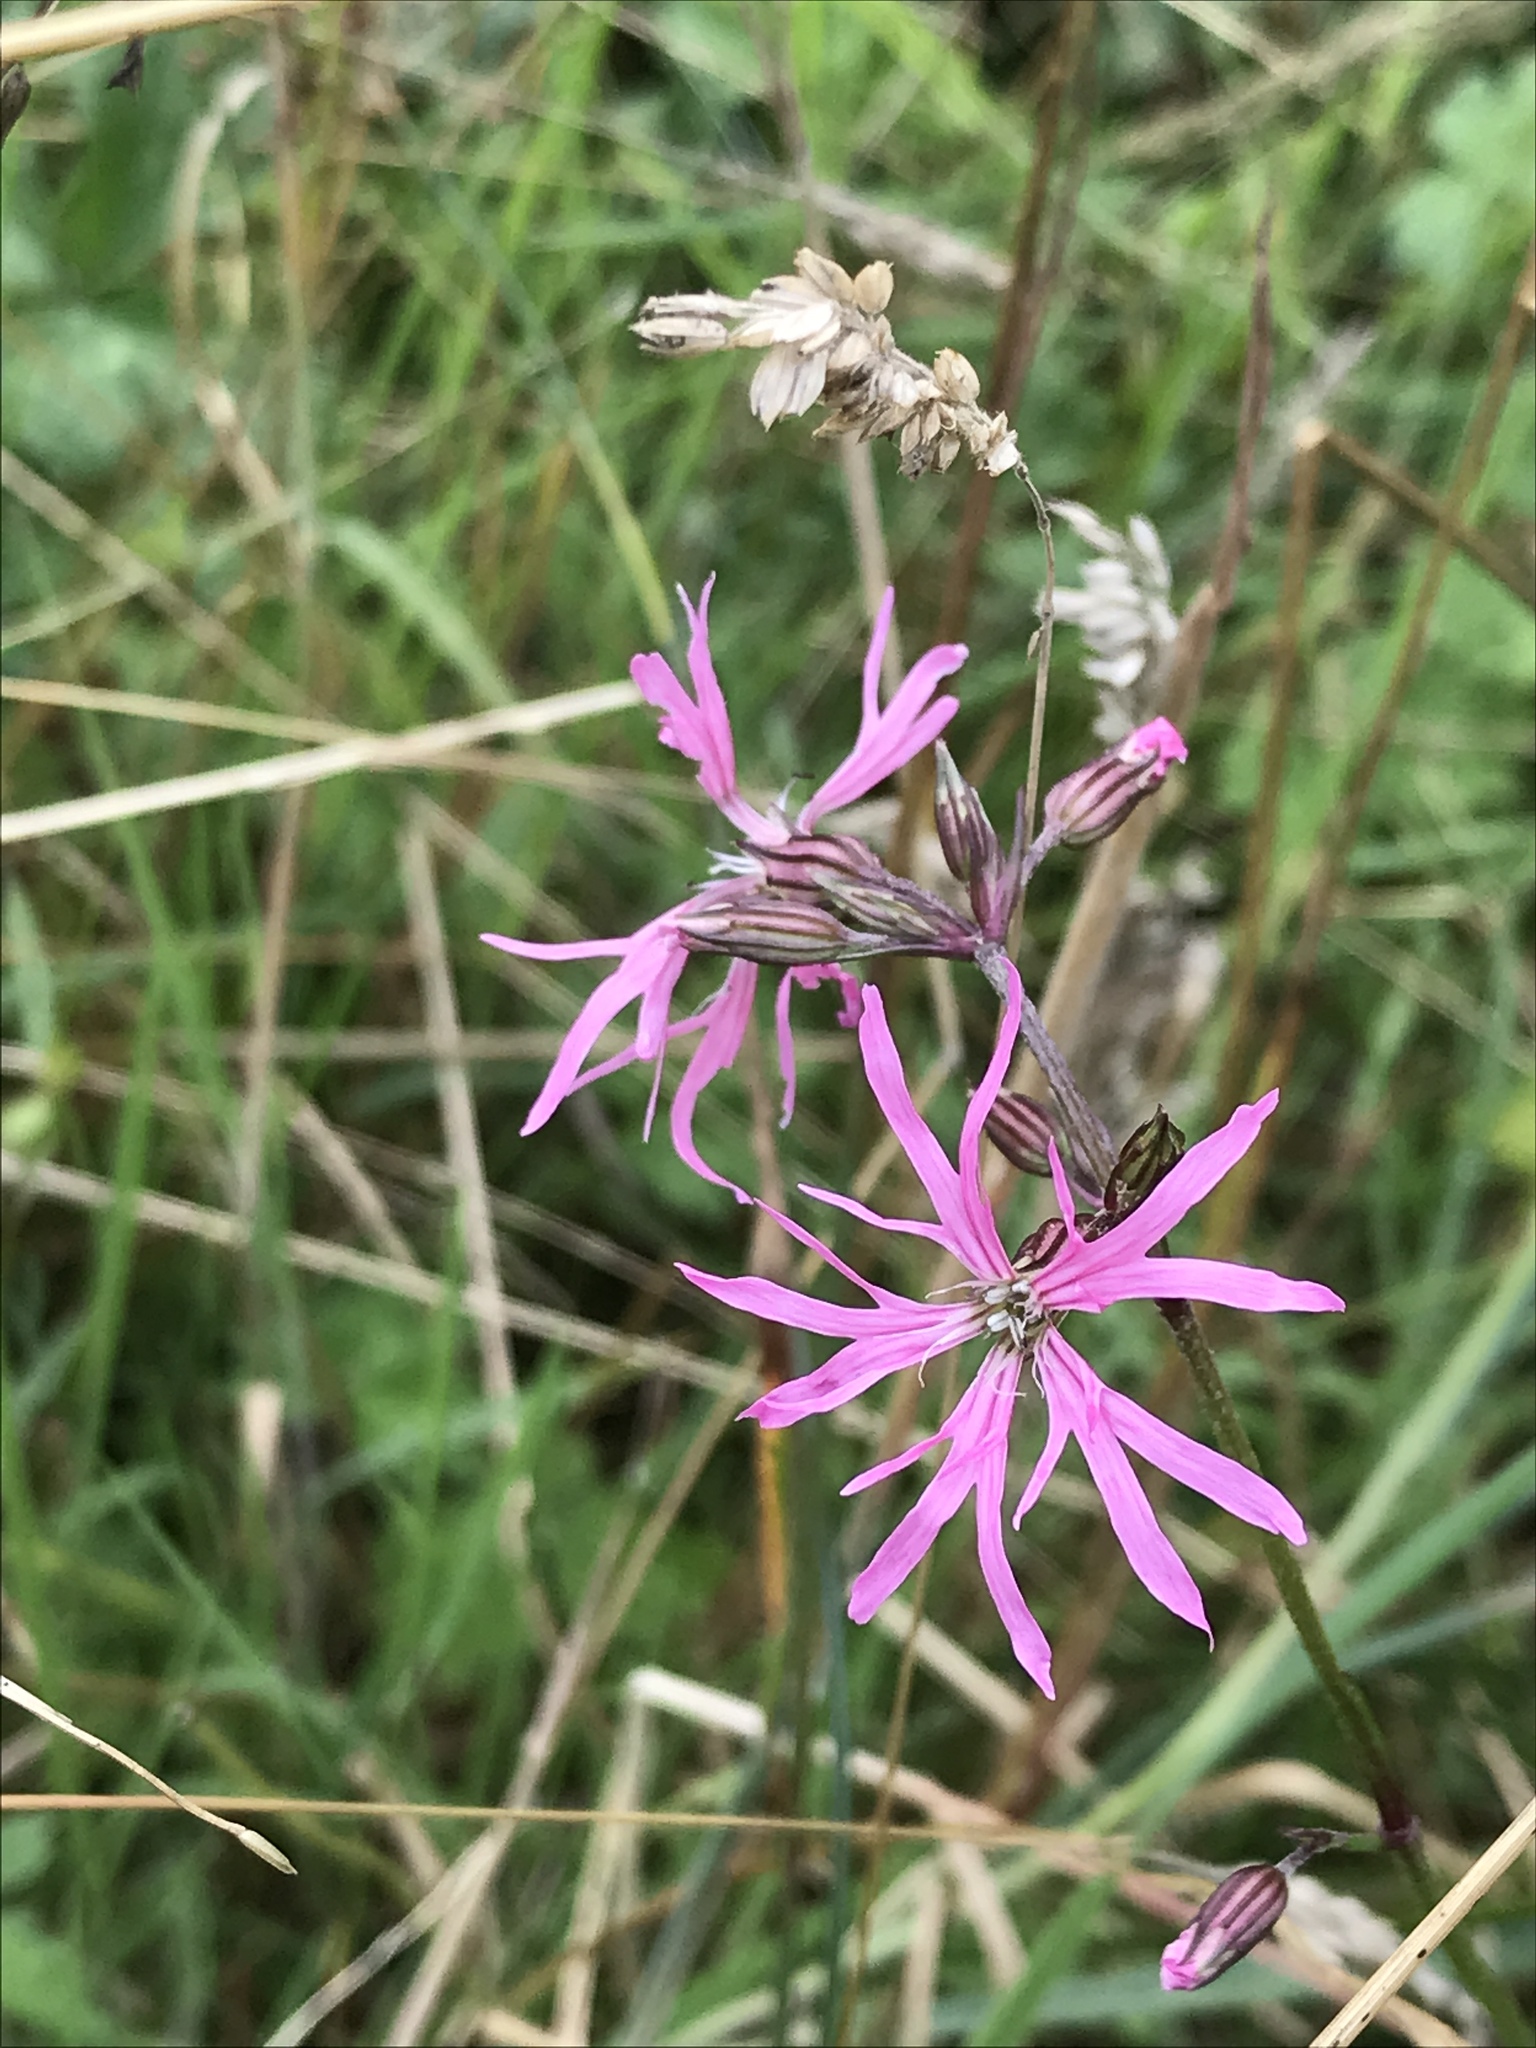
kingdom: Plantae
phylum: Tracheophyta
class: Magnoliopsida
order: Caryophyllales
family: Caryophyllaceae
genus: Silene
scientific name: Silene flos-cuculi
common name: Ragged-robin
